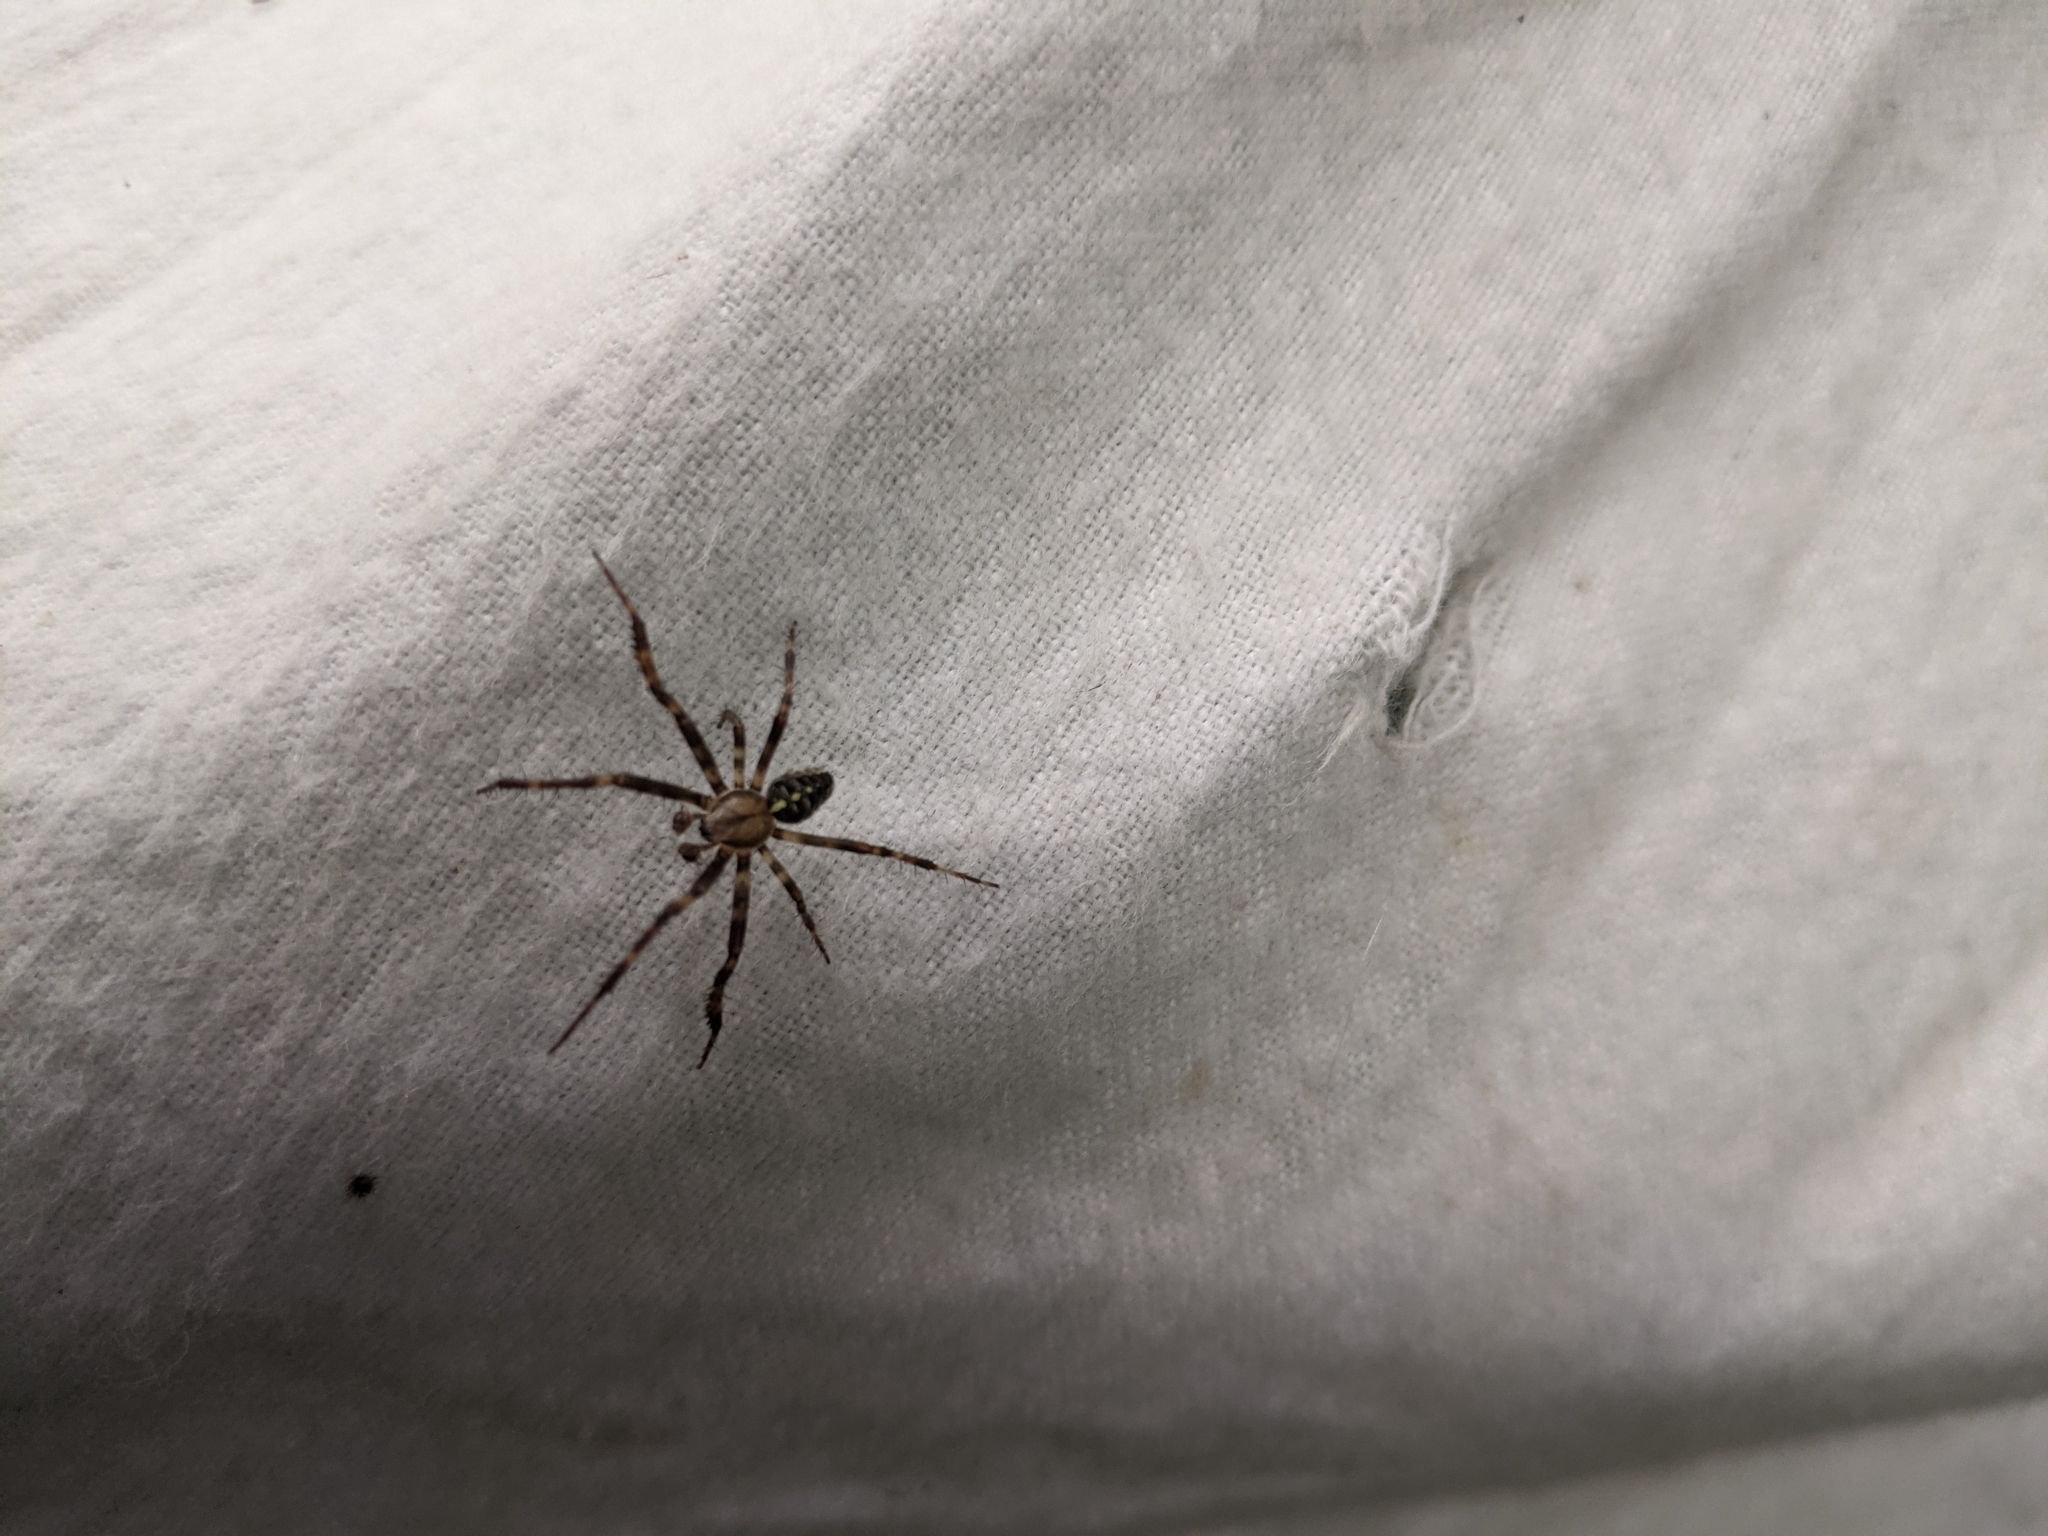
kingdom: Animalia
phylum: Arthropoda
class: Arachnida
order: Araneae
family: Araneidae
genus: Araneus
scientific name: Araneus diadematus
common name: Cross orbweaver
